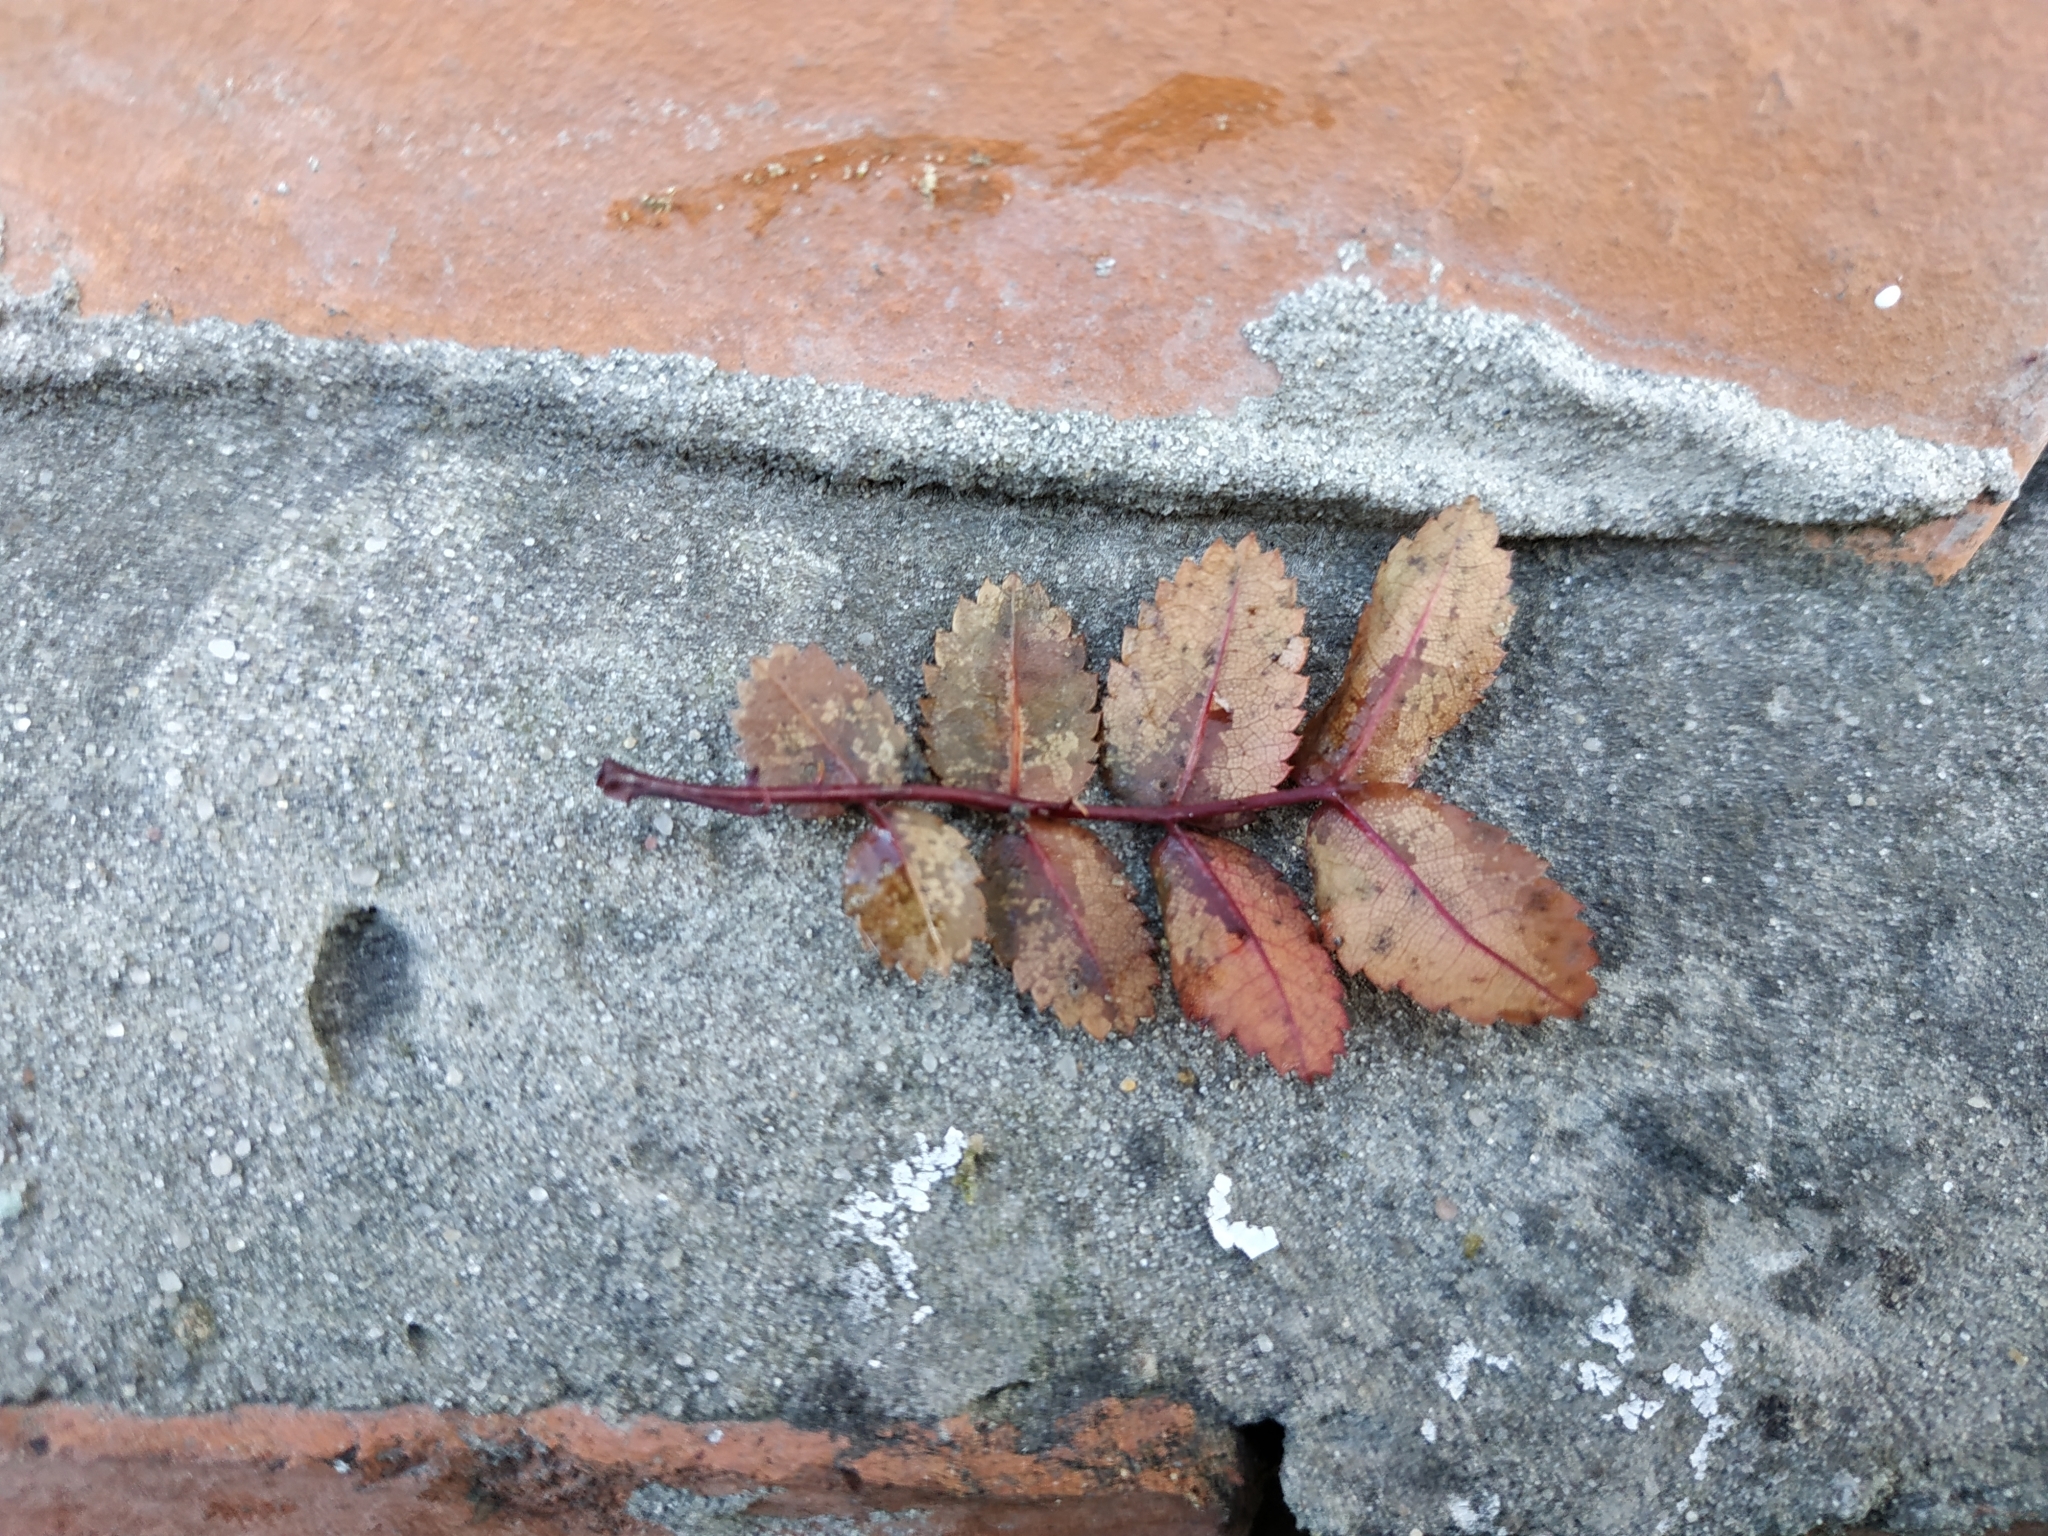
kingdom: Plantae
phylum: Tracheophyta
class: Magnoliopsida
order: Rosales
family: Rosaceae
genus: Sorbus
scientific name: Sorbus aucuparia
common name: Rowan
